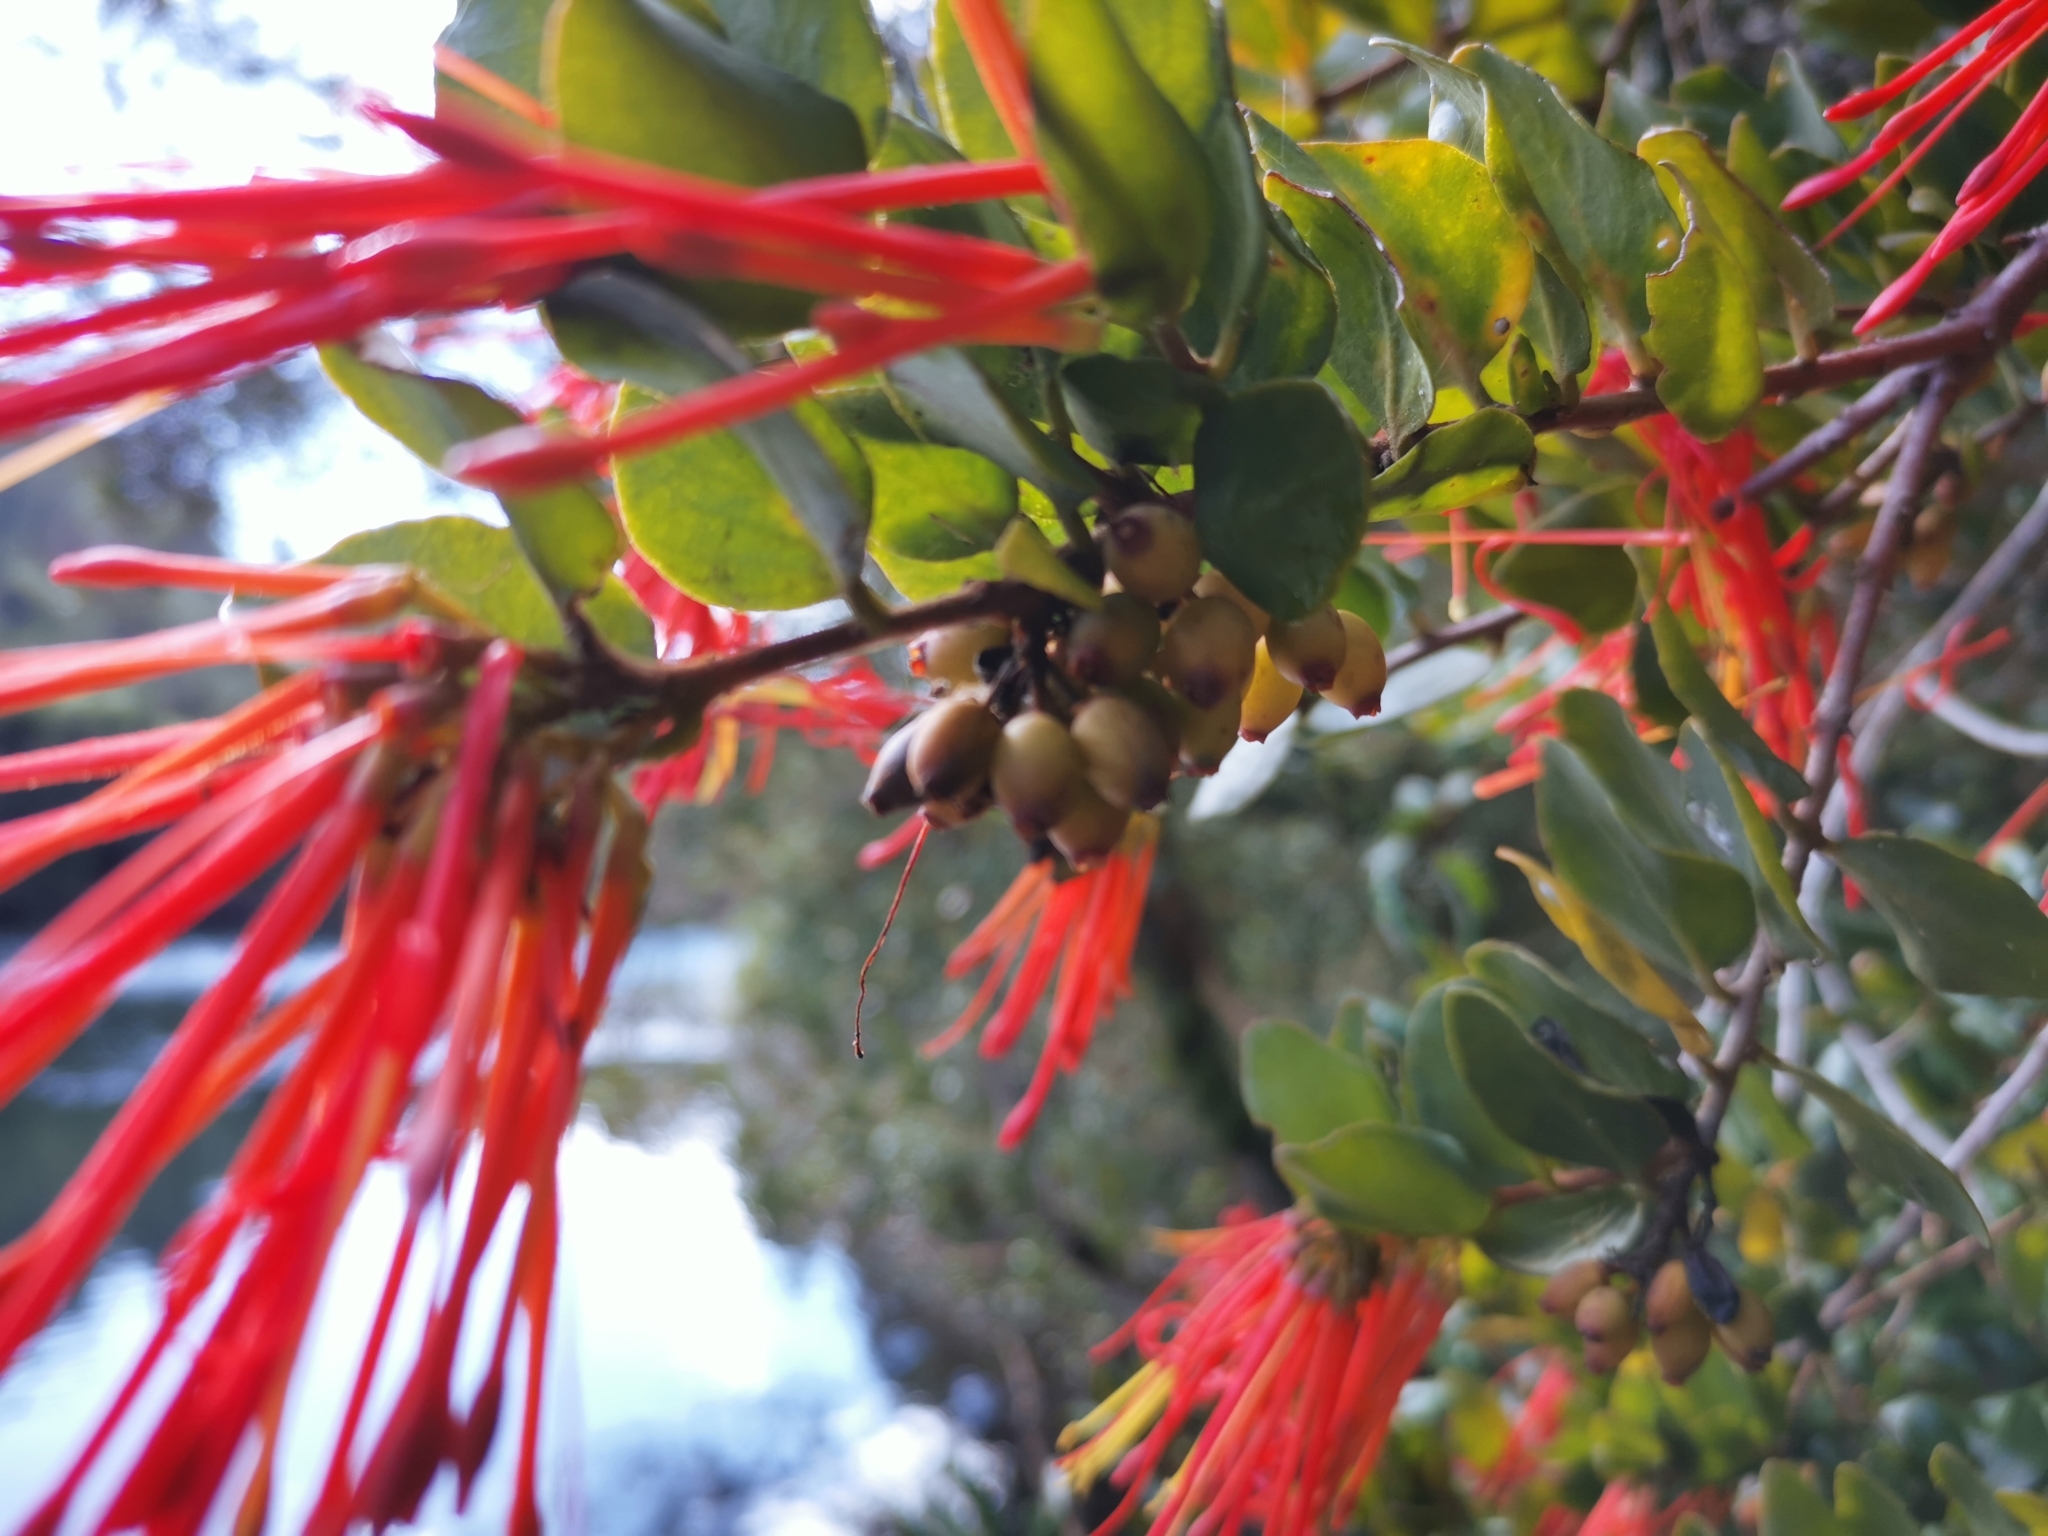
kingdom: Plantae
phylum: Tracheophyta
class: Magnoliopsida
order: Santalales
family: Loranthaceae
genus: Tristerix
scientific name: Tristerix corymbosus
